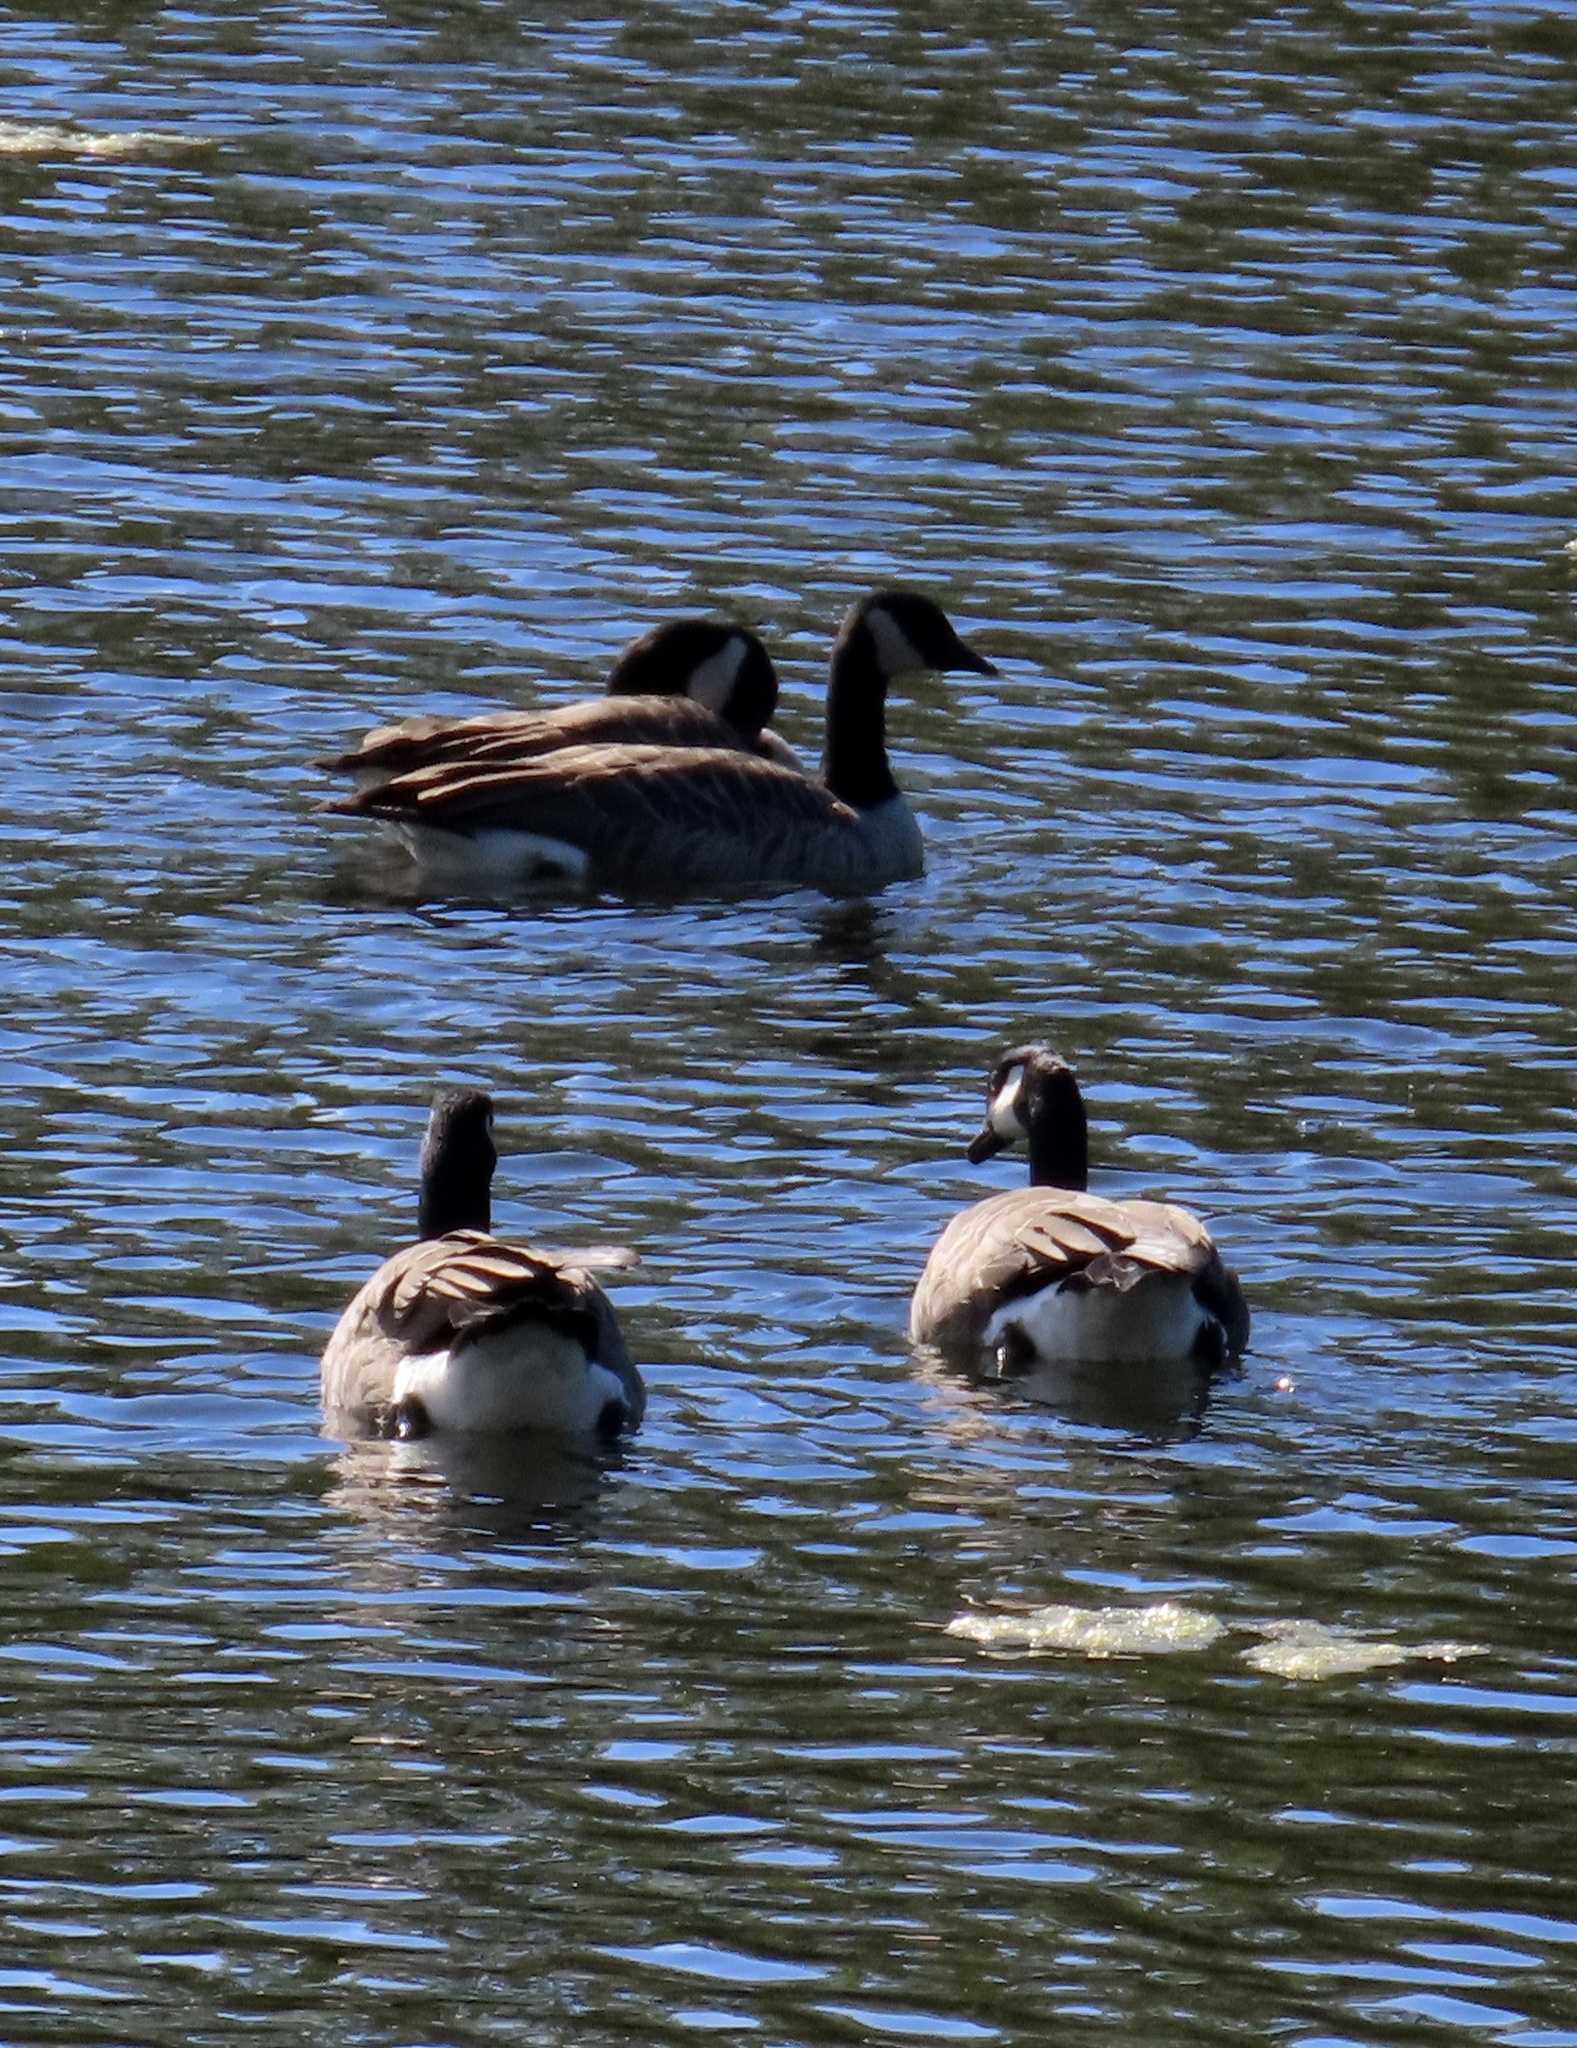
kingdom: Animalia
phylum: Chordata
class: Aves
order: Anseriformes
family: Anatidae
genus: Branta
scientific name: Branta canadensis
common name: Canada goose
